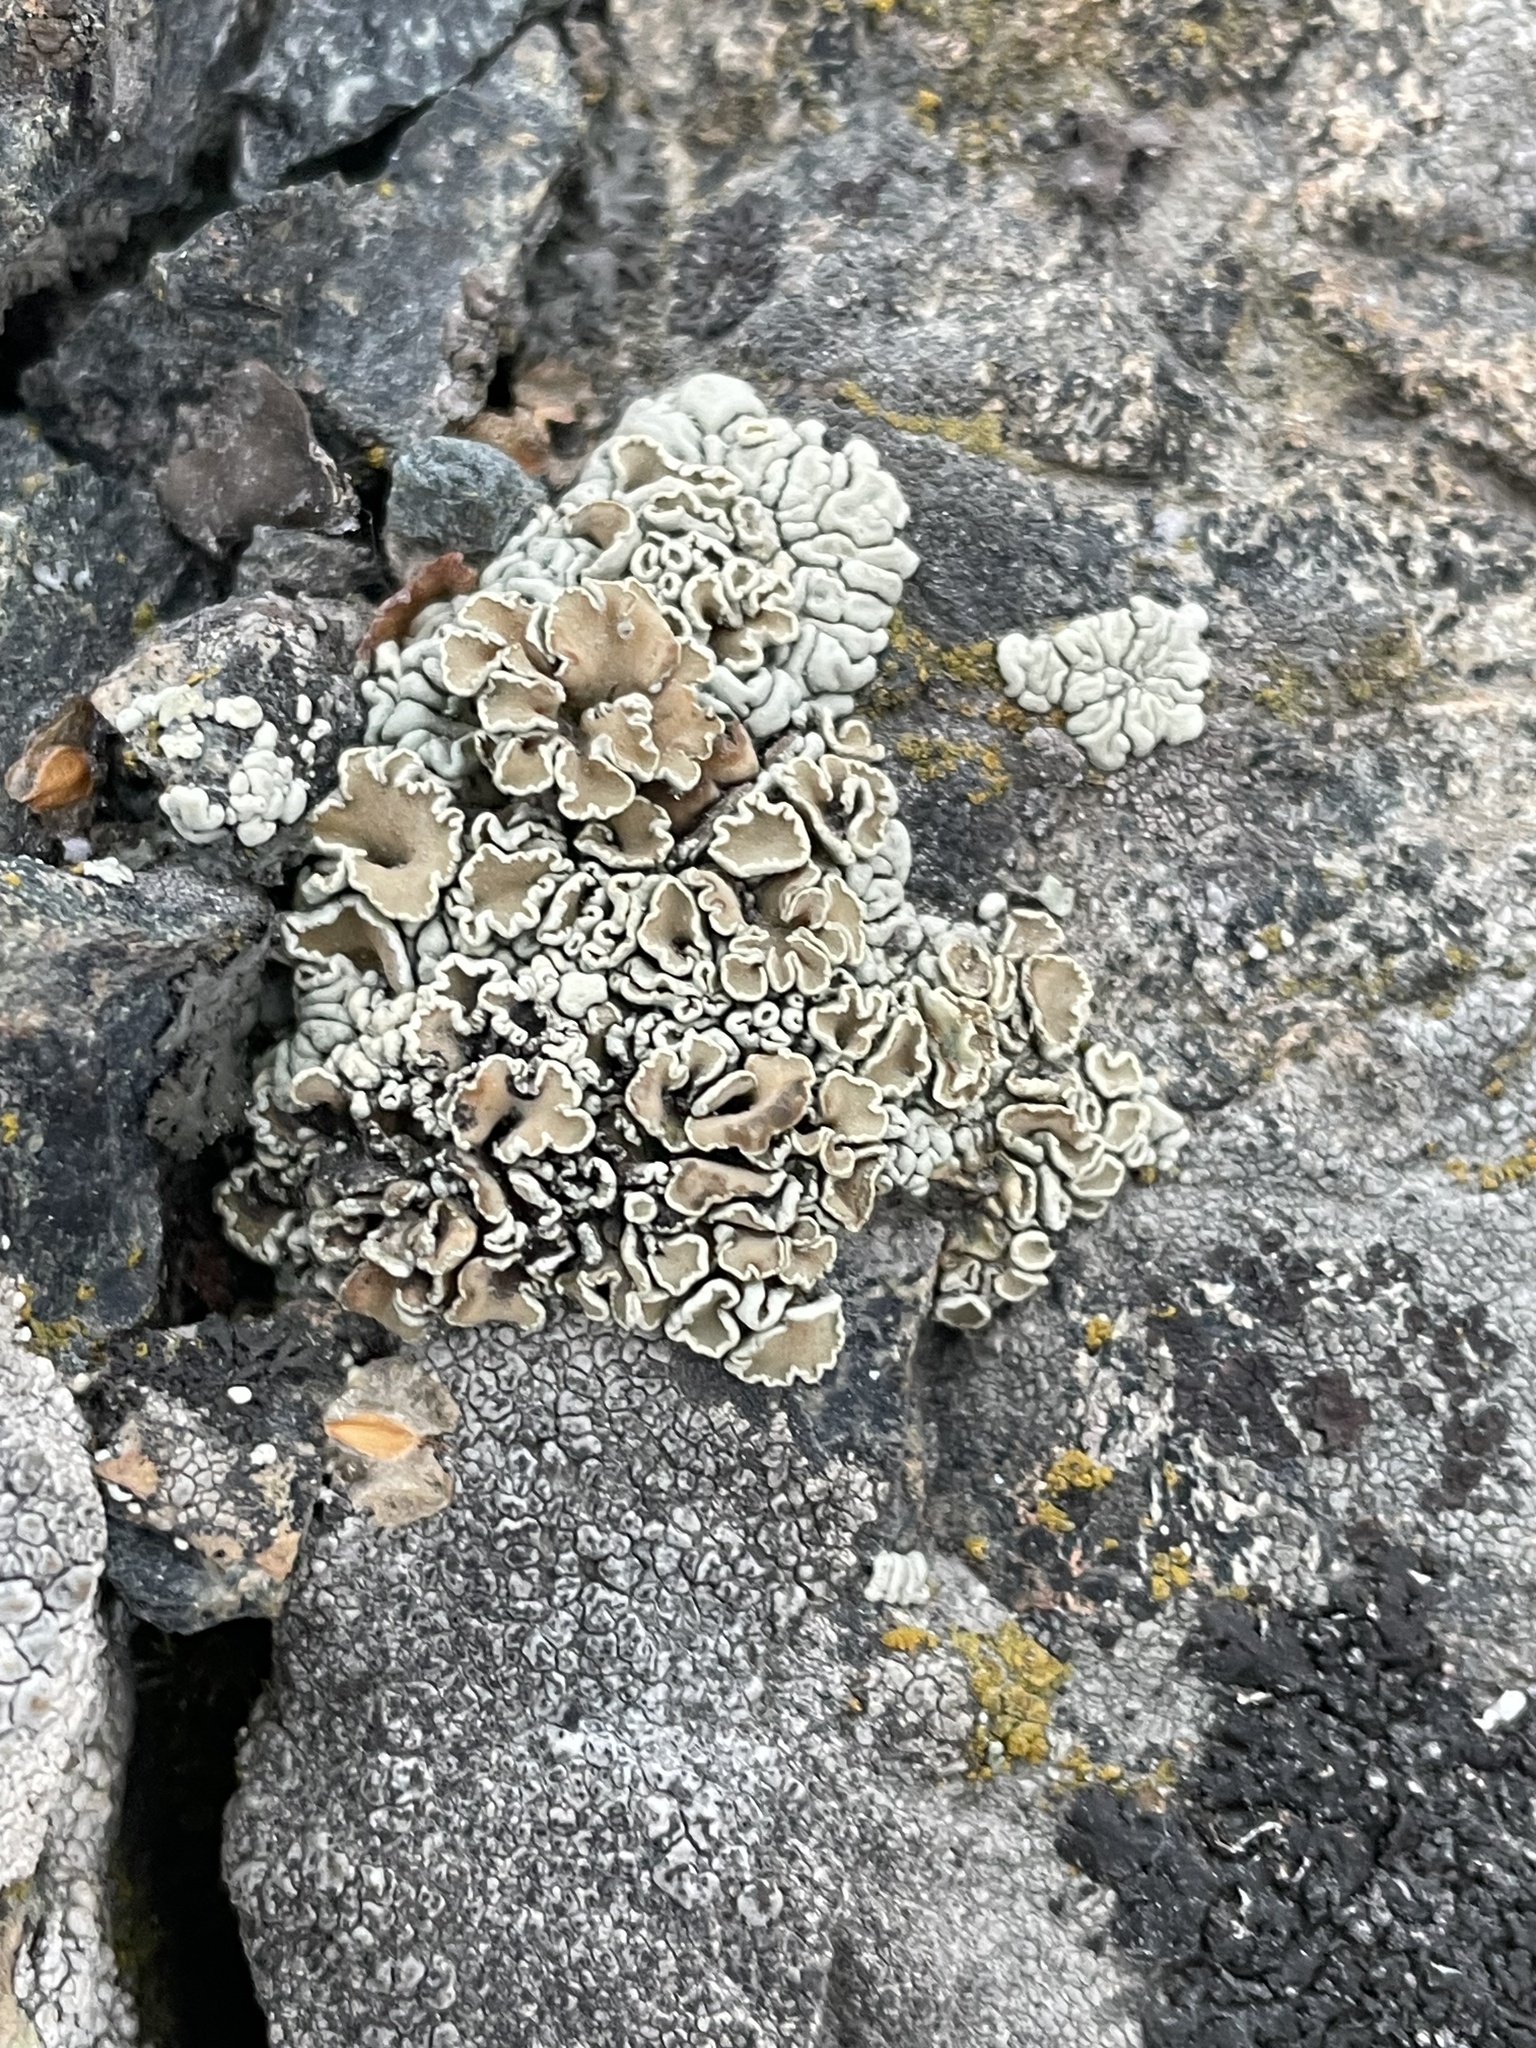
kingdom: Fungi
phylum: Ascomycota
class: Lecanoromycetes
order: Lecanorales
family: Lecanoraceae
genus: Omphalodina
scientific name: Omphalodina chrysoleuca
